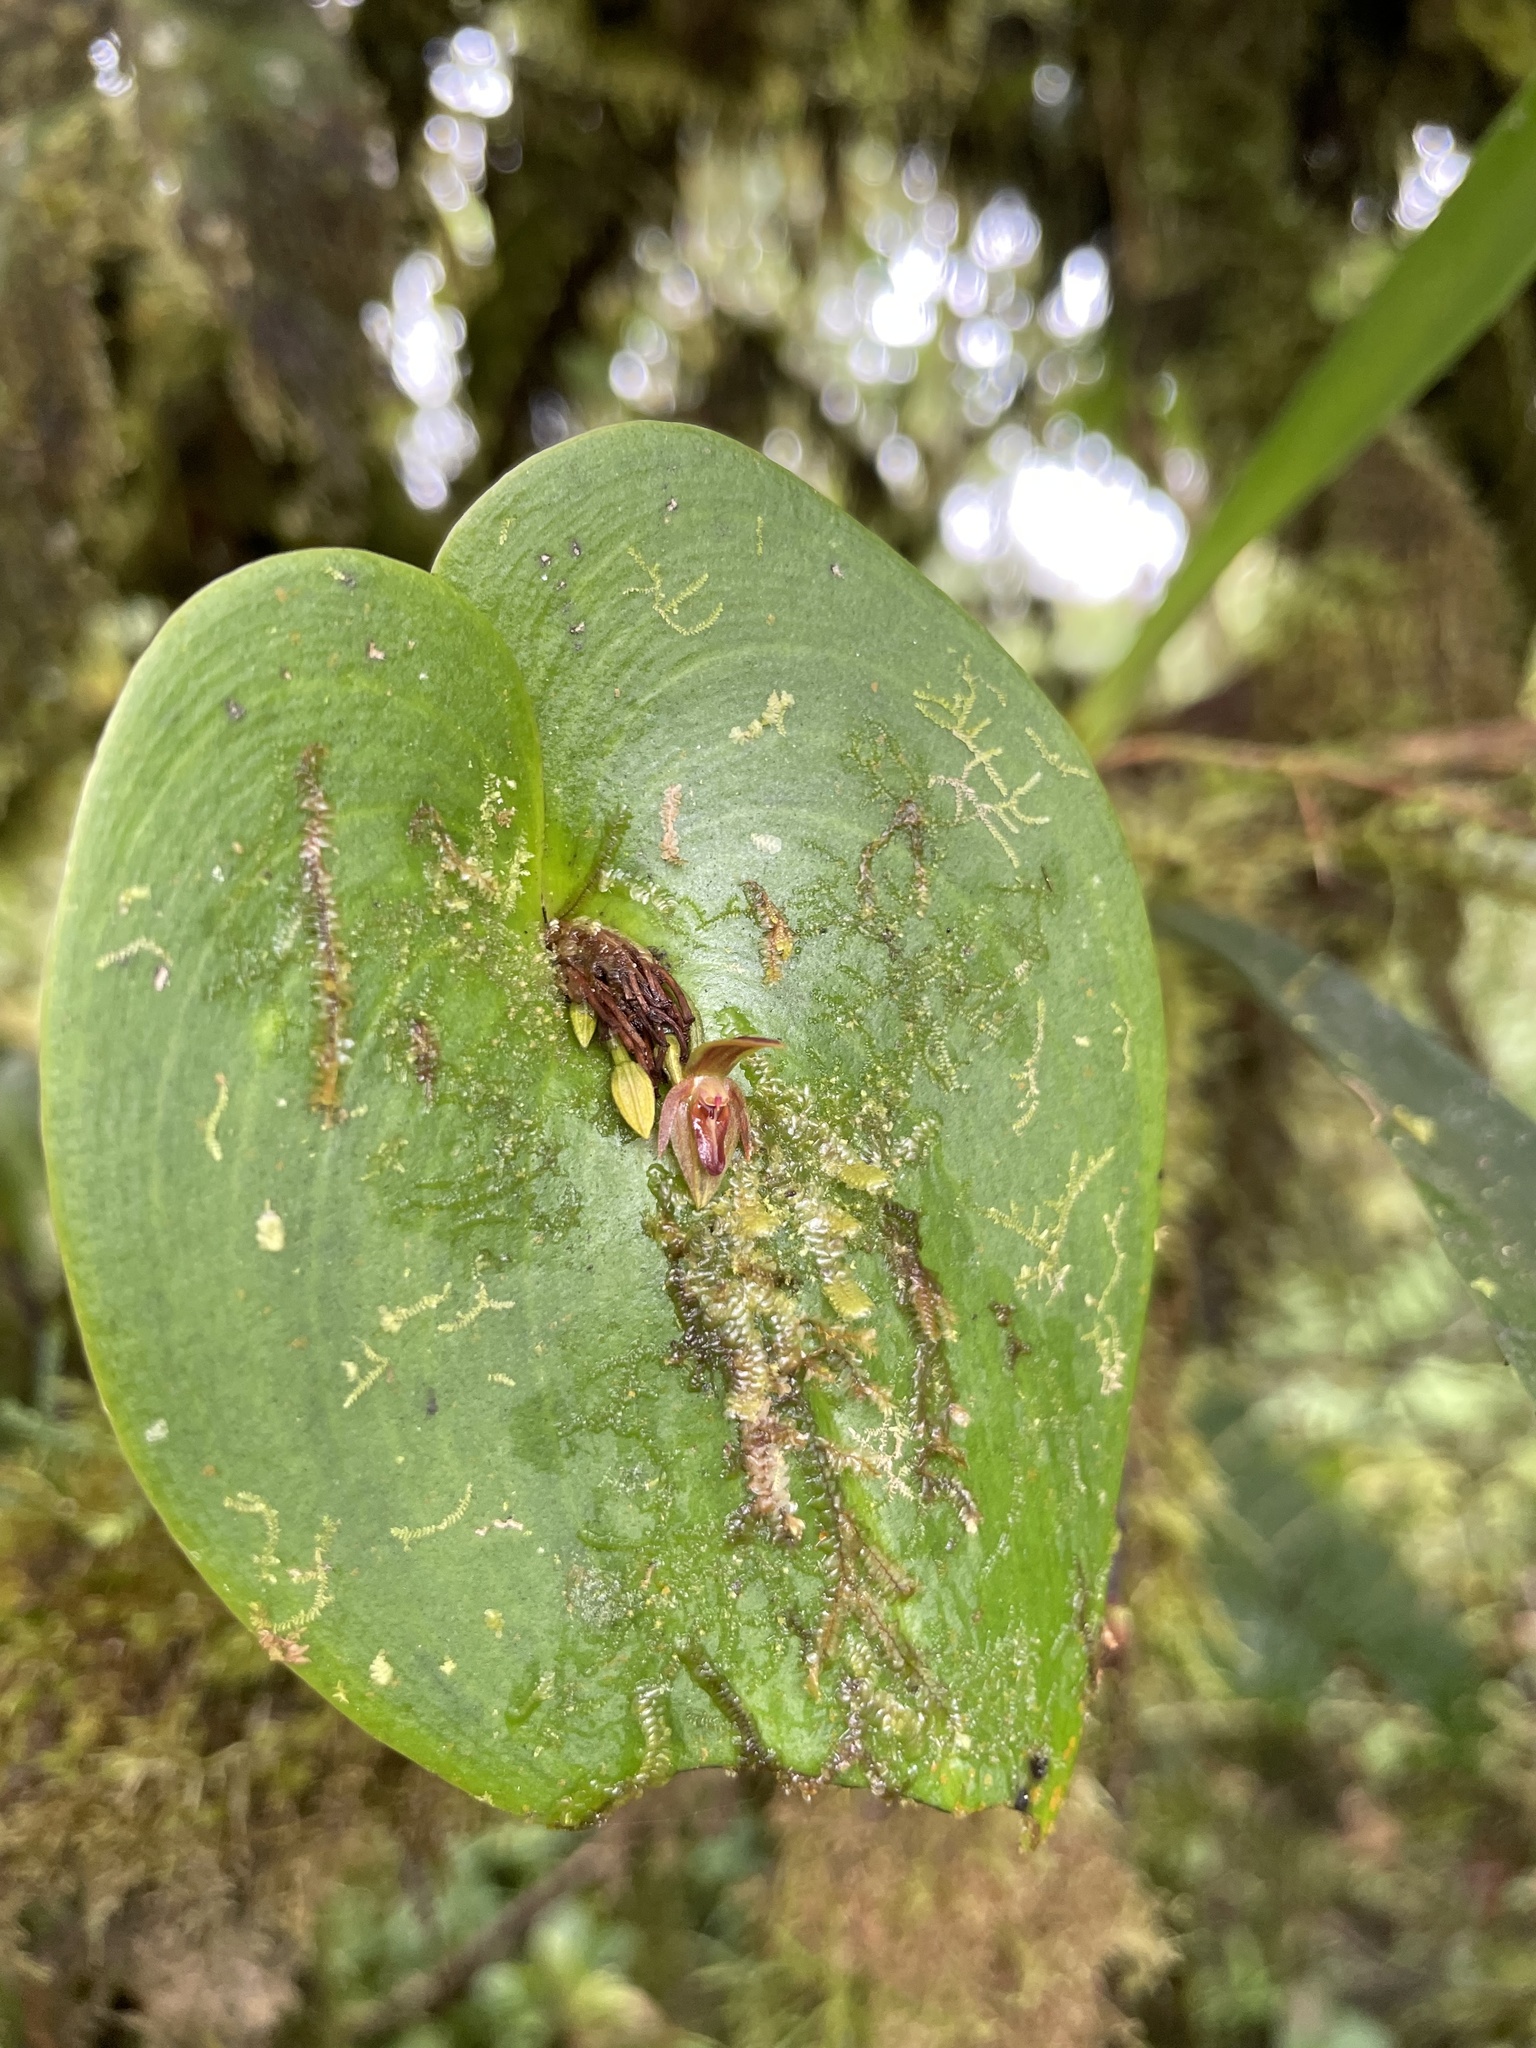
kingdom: Plantae
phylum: Tracheophyta
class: Liliopsida
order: Asparagales
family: Orchidaceae
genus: Pleurothallis
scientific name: Pleurothallis fossulata
